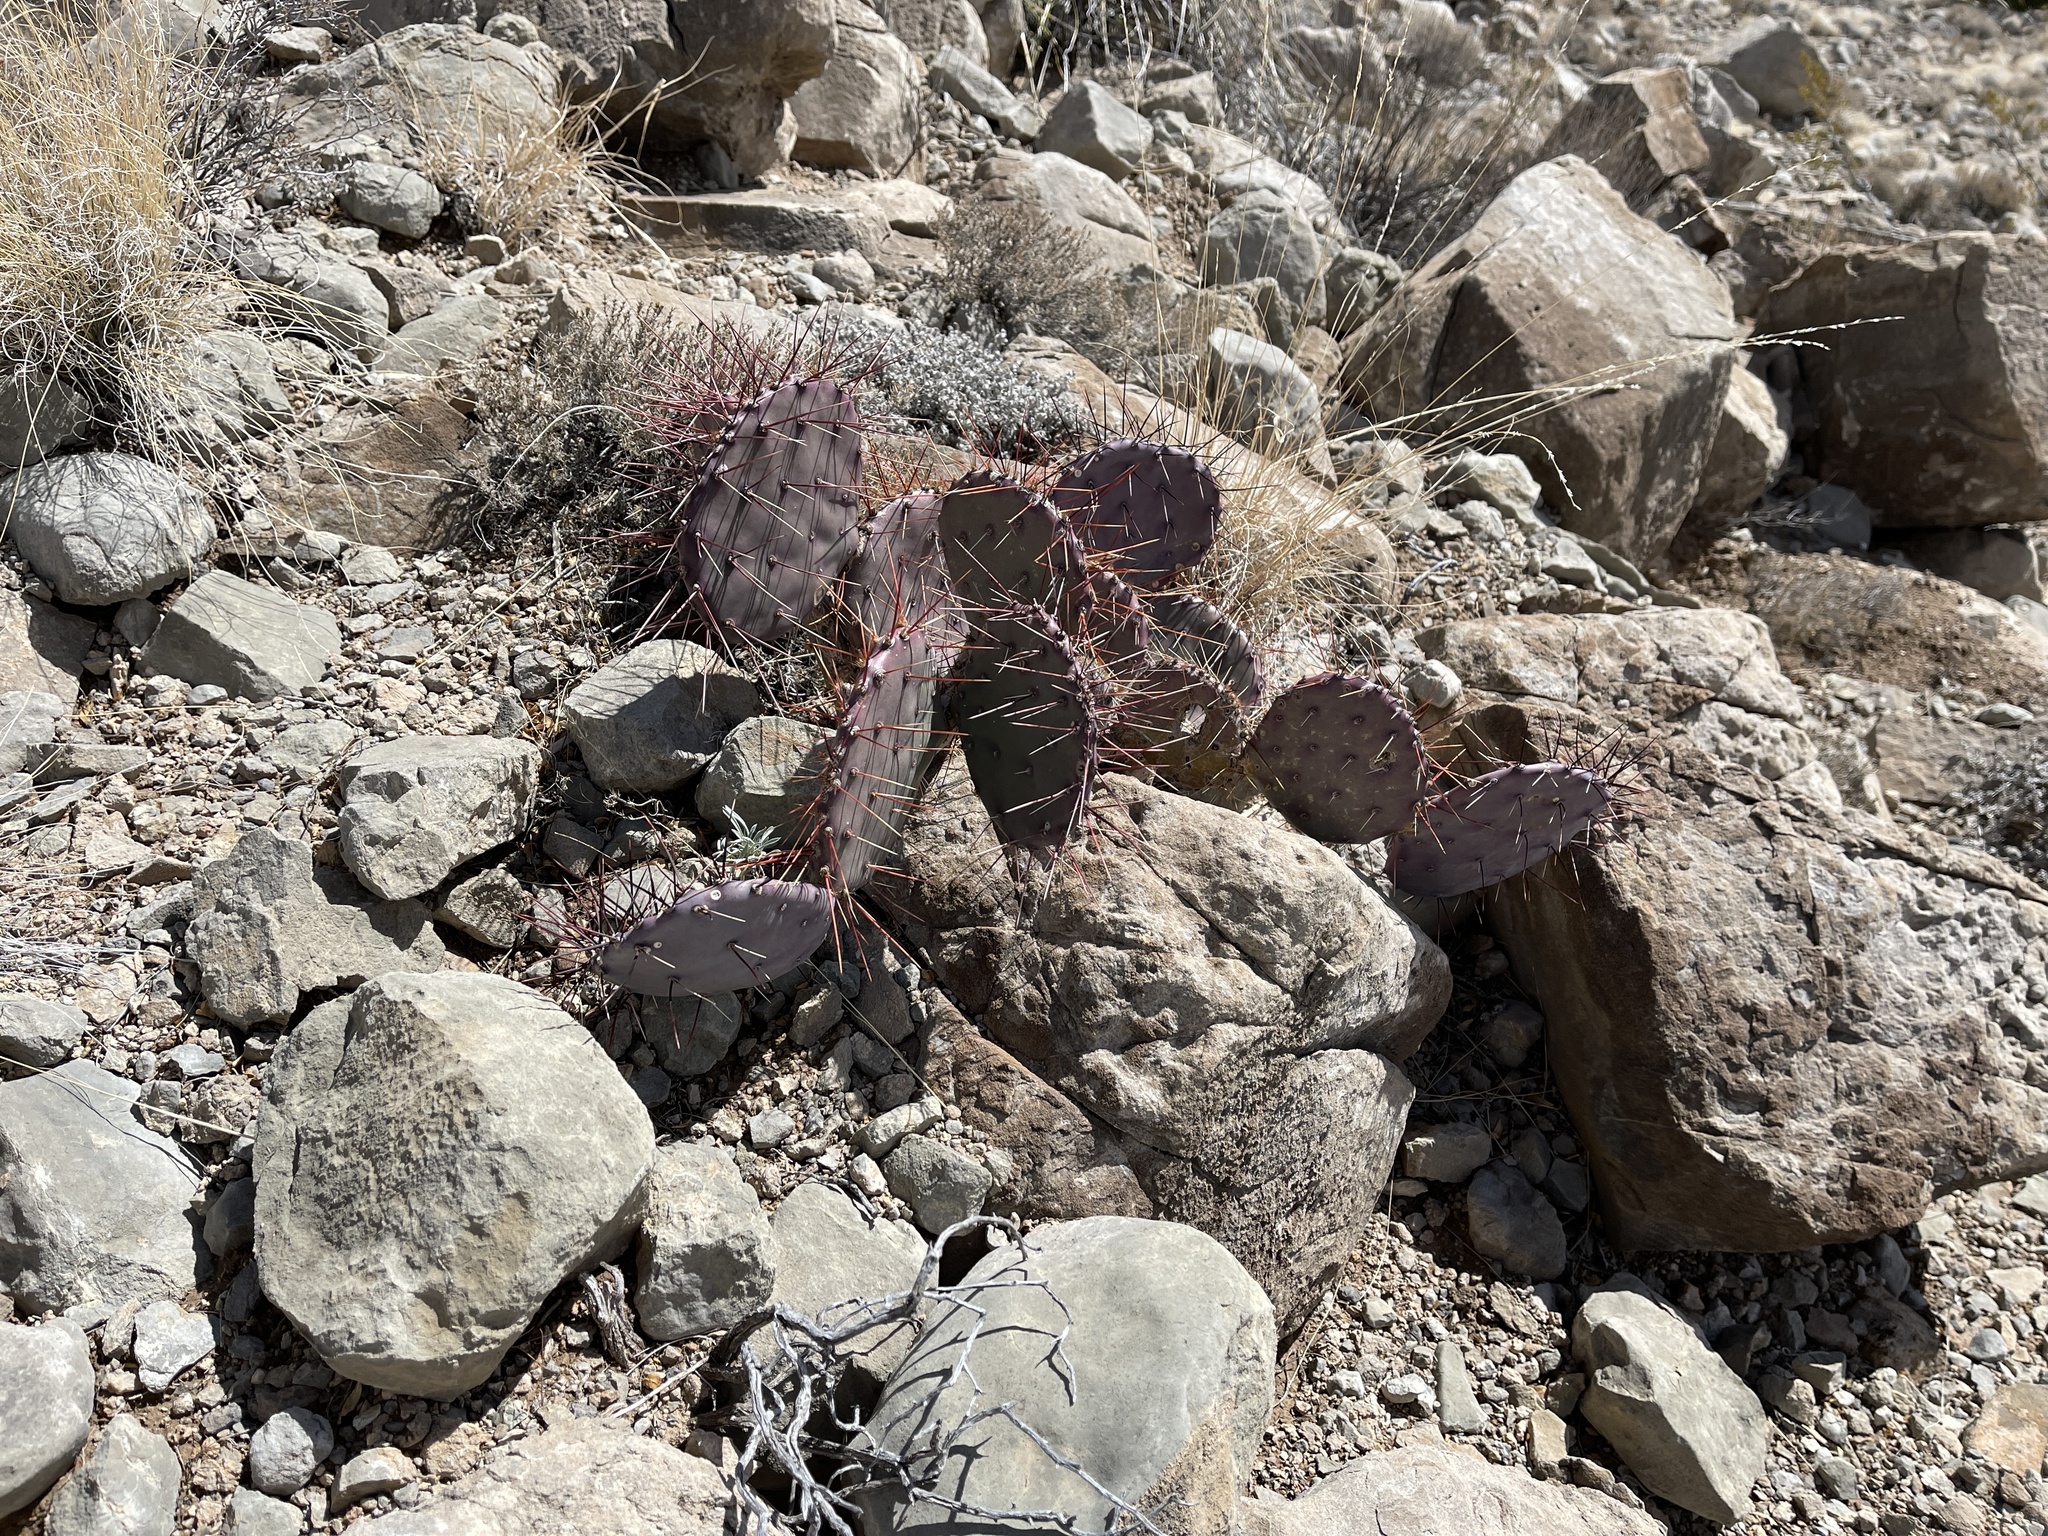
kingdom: Plantae
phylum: Tracheophyta
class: Magnoliopsida
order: Caryophyllales
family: Cactaceae
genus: Opuntia
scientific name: Opuntia macrocentra
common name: Purple prickly-pear
